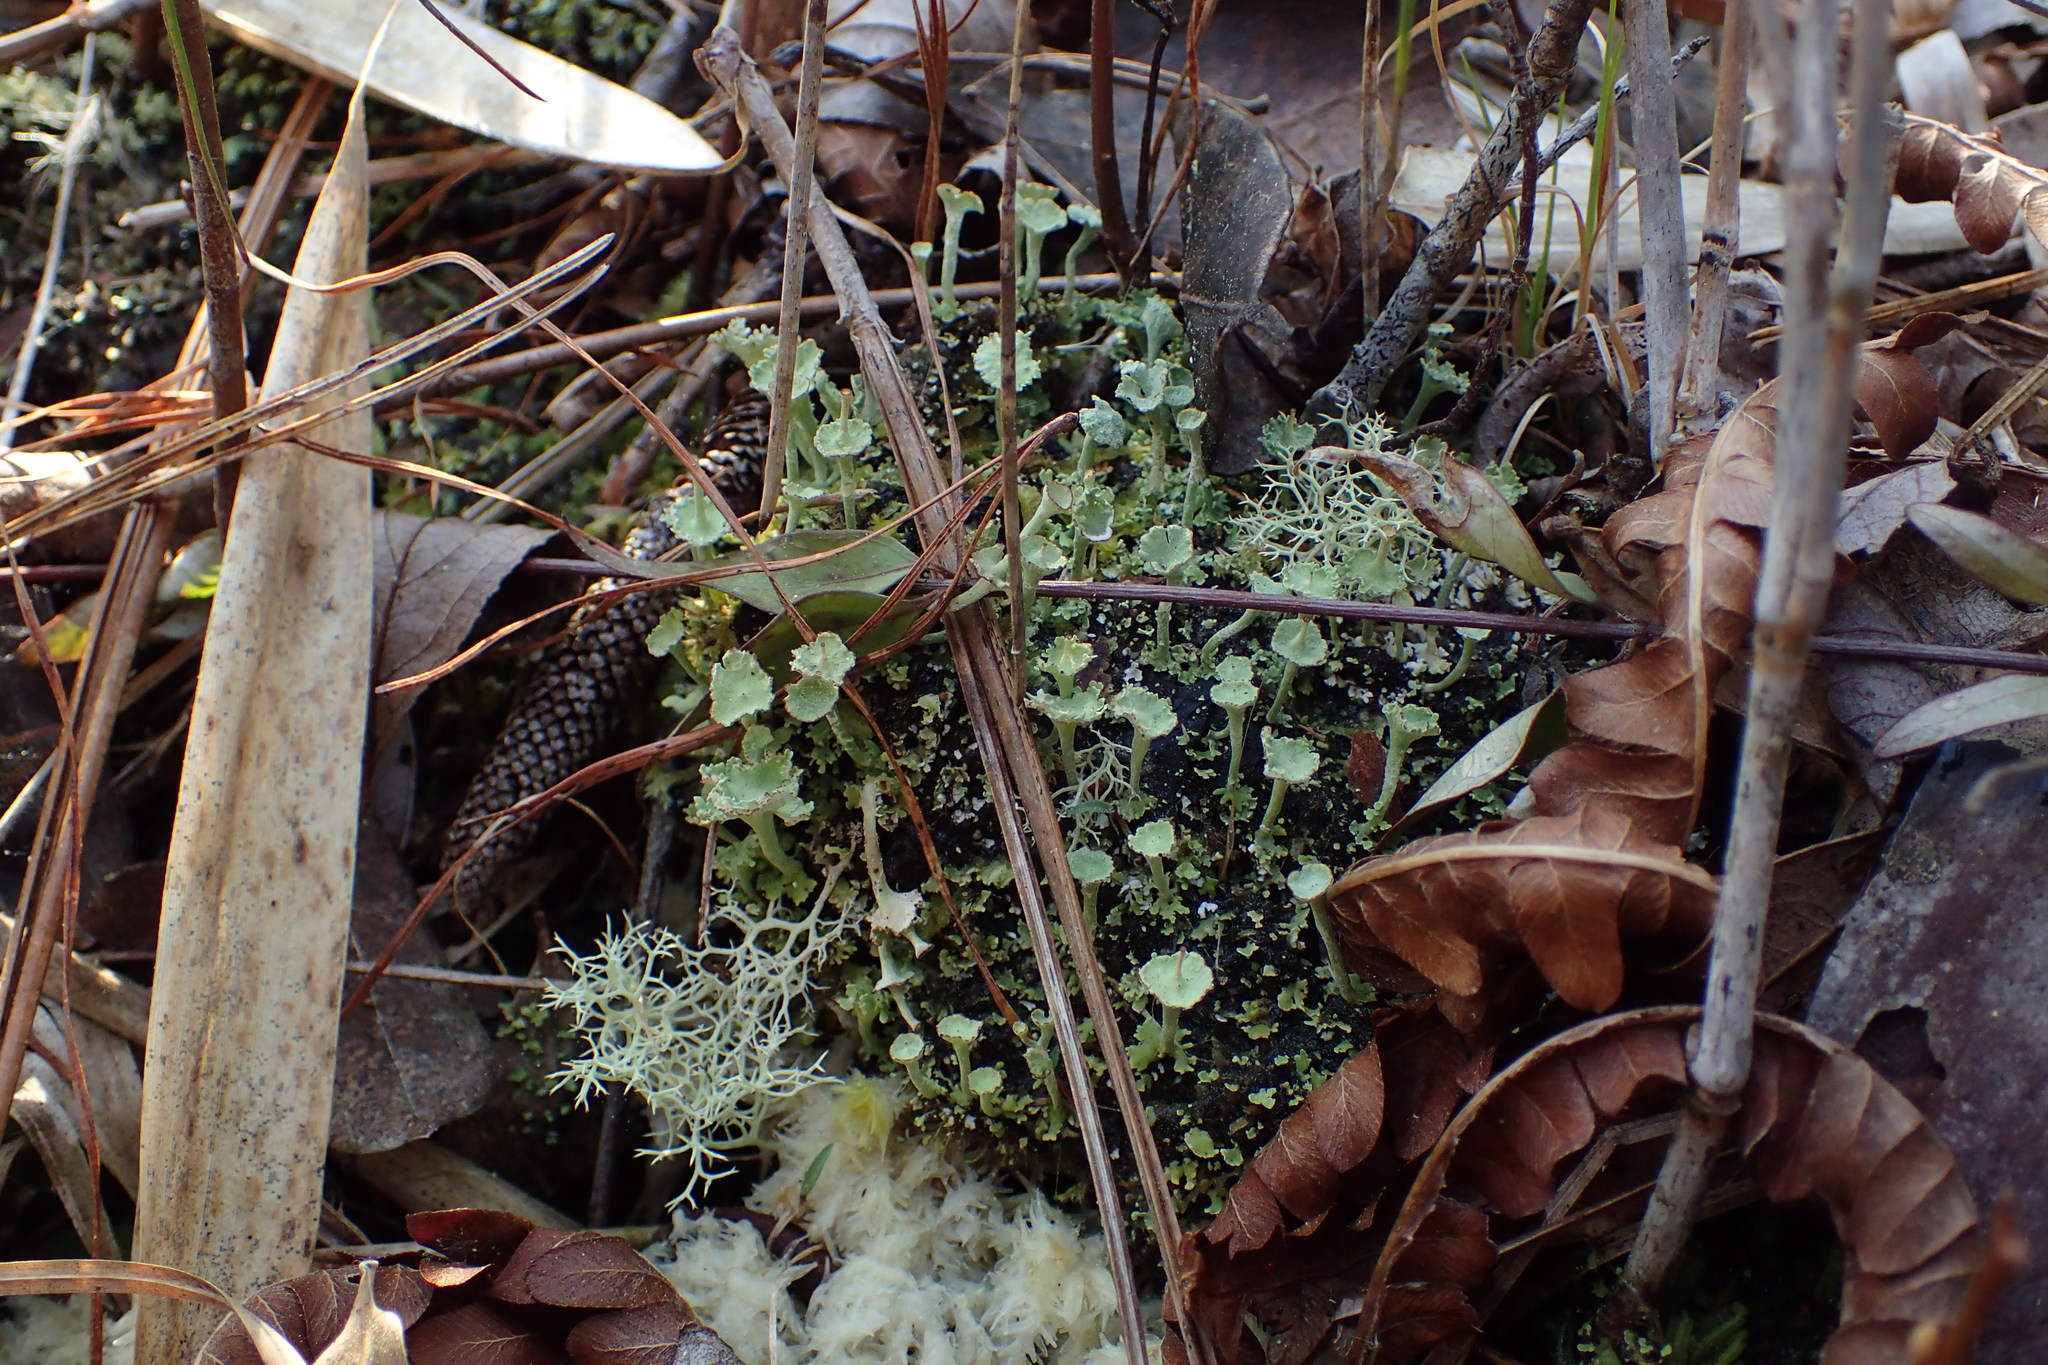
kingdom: Fungi
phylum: Ascomycota
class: Lecanoromycetes
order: Lecanorales
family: Cladoniaceae
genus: Cladonia
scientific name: Cladonia rappii
